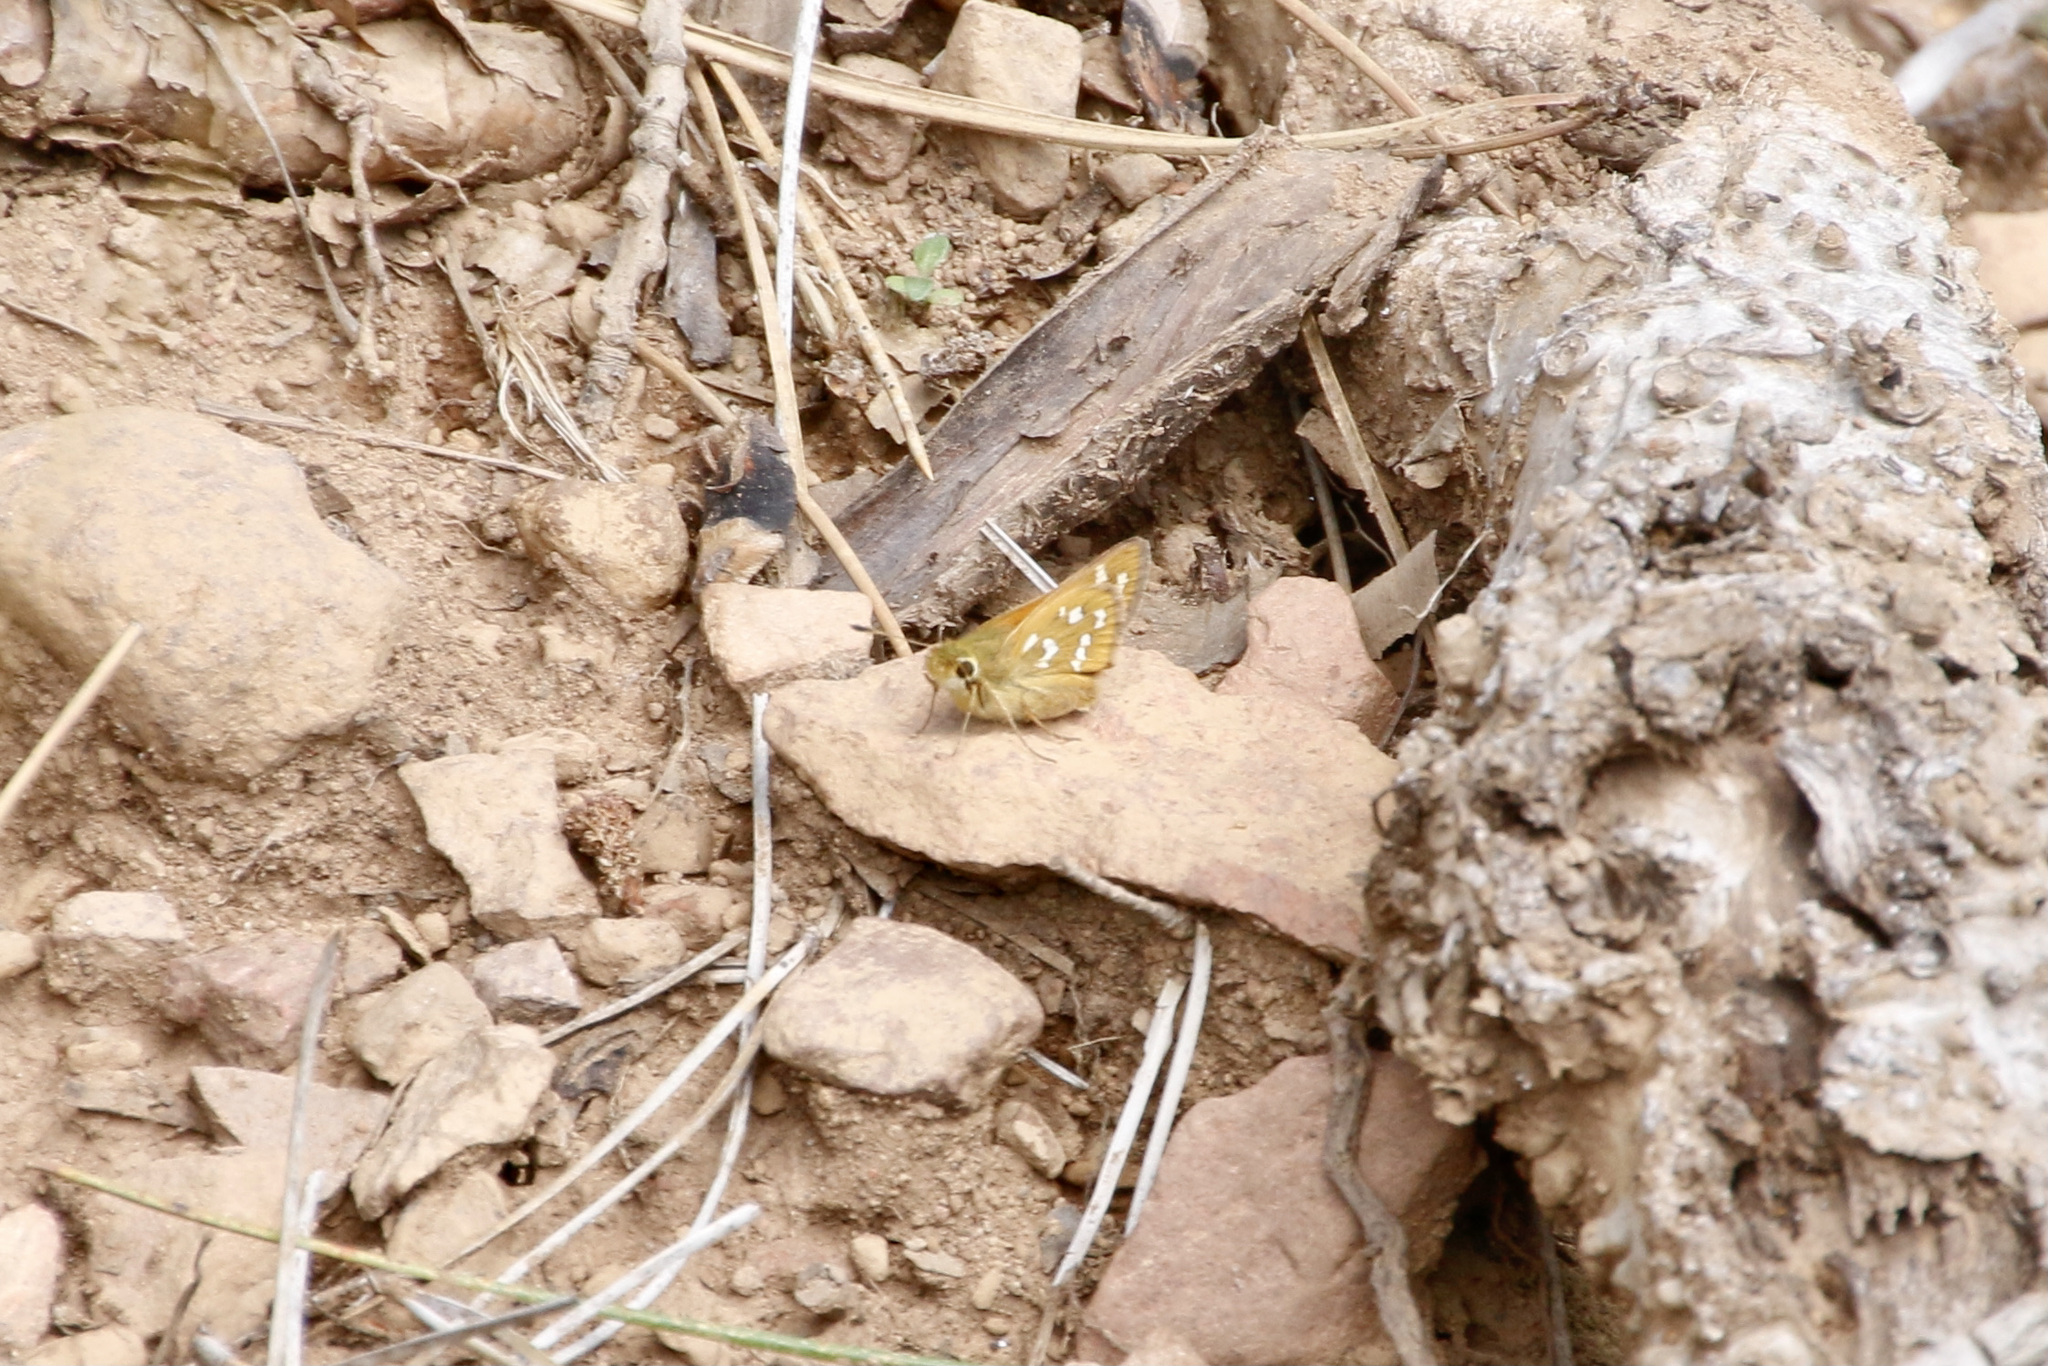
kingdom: Animalia
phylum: Arthropoda
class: Insecta
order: Lepidoptera
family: Hesperiidae
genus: Hesperia
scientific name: Hesperia comma
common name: Common branded skipper
